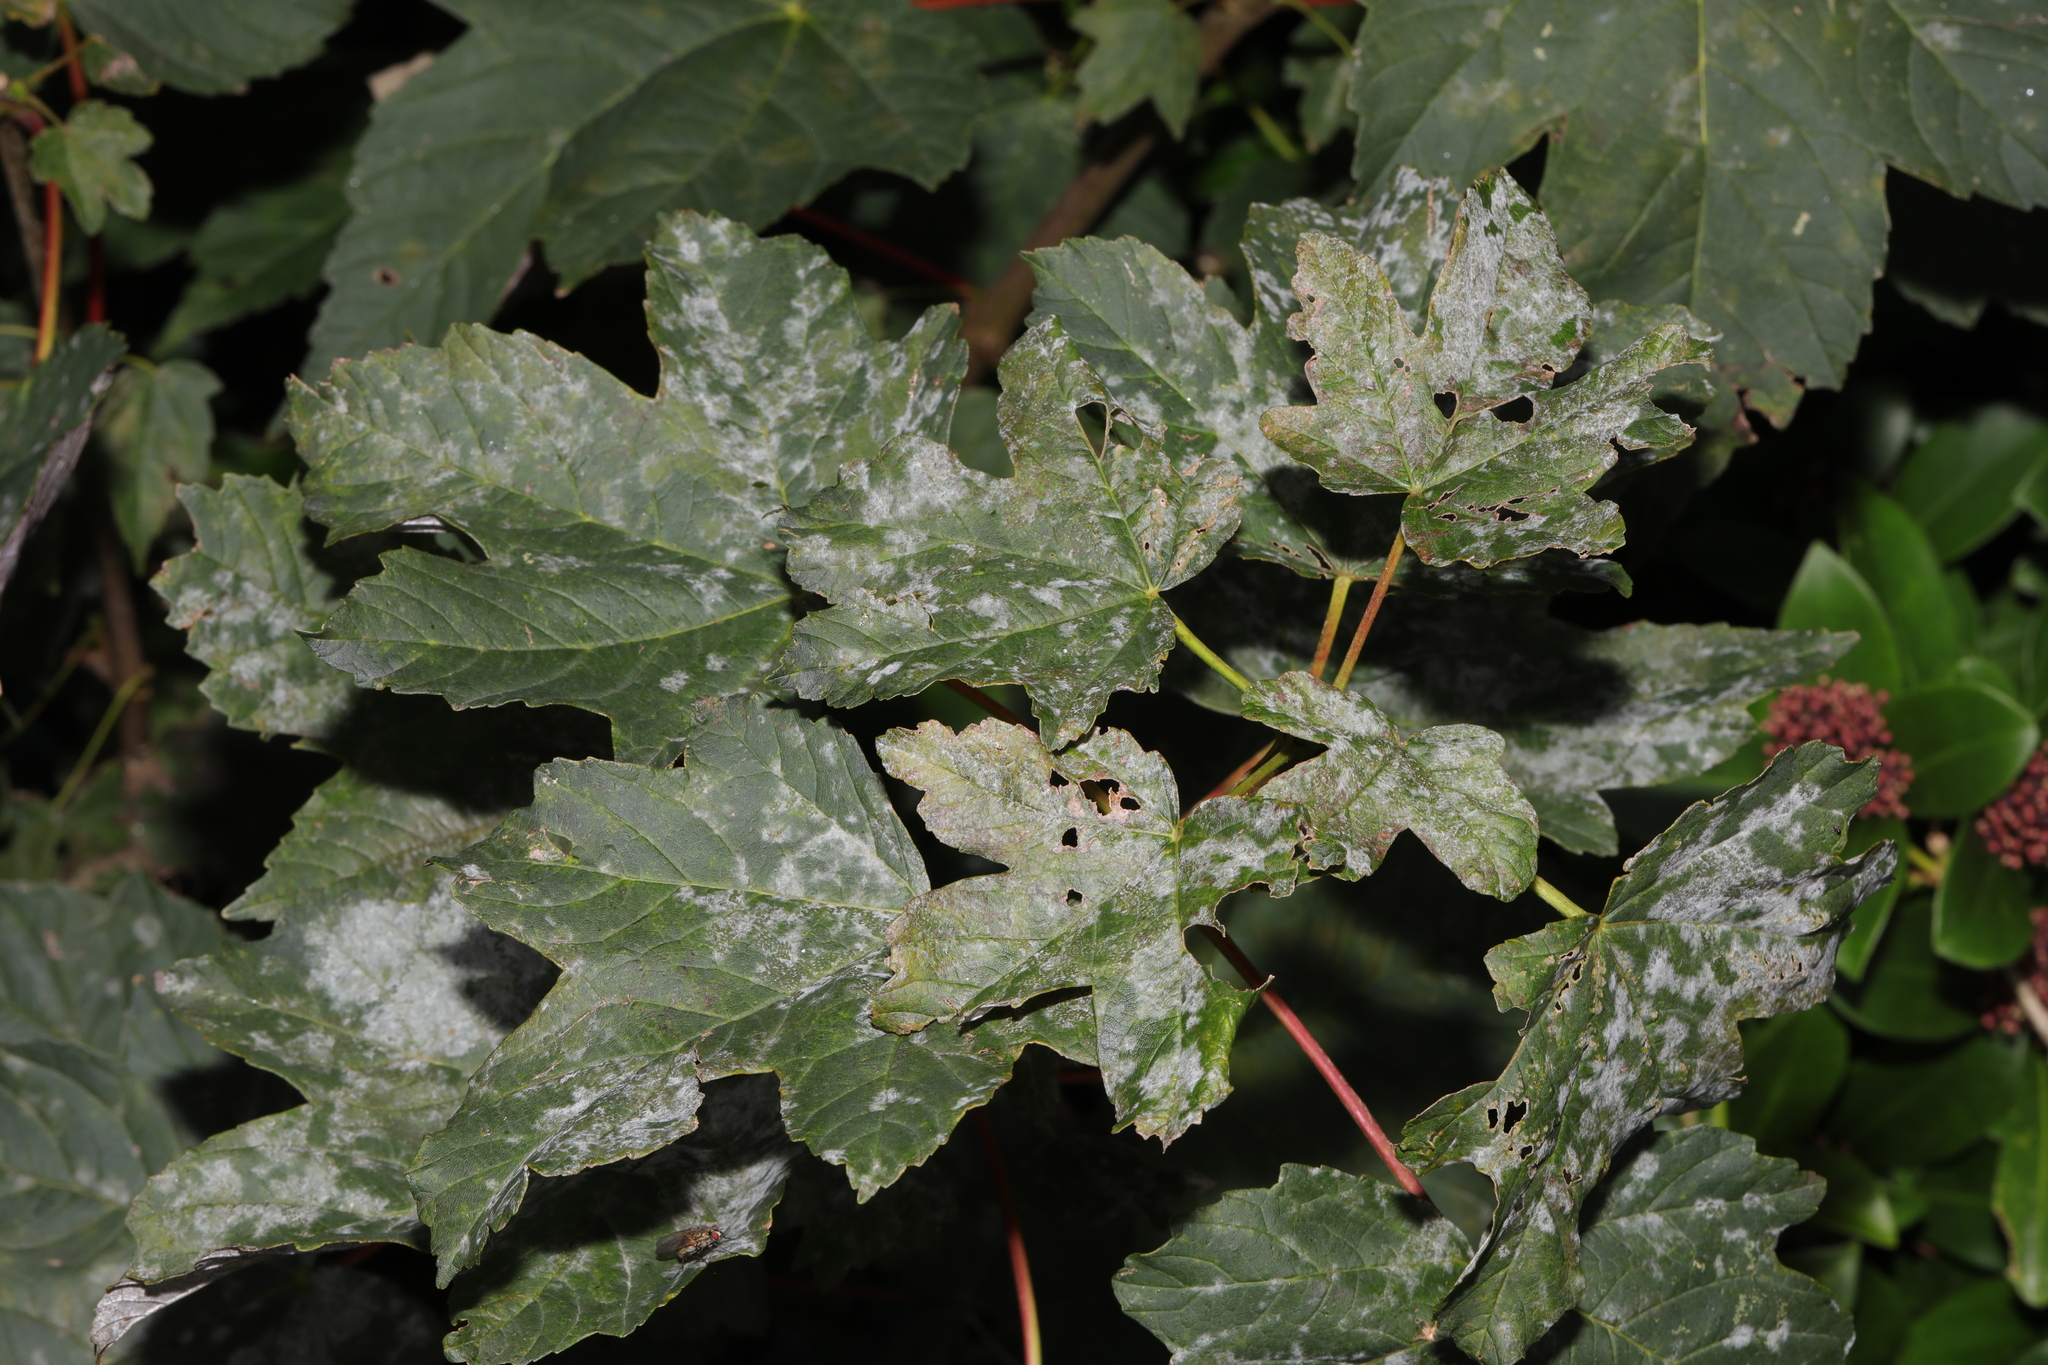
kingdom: Plantae
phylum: Tracheophyta
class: Magnoliopsida
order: Sapindales
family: Sapindaceae
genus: Acer
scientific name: Acer pseudoplatanus
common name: Sycamore
